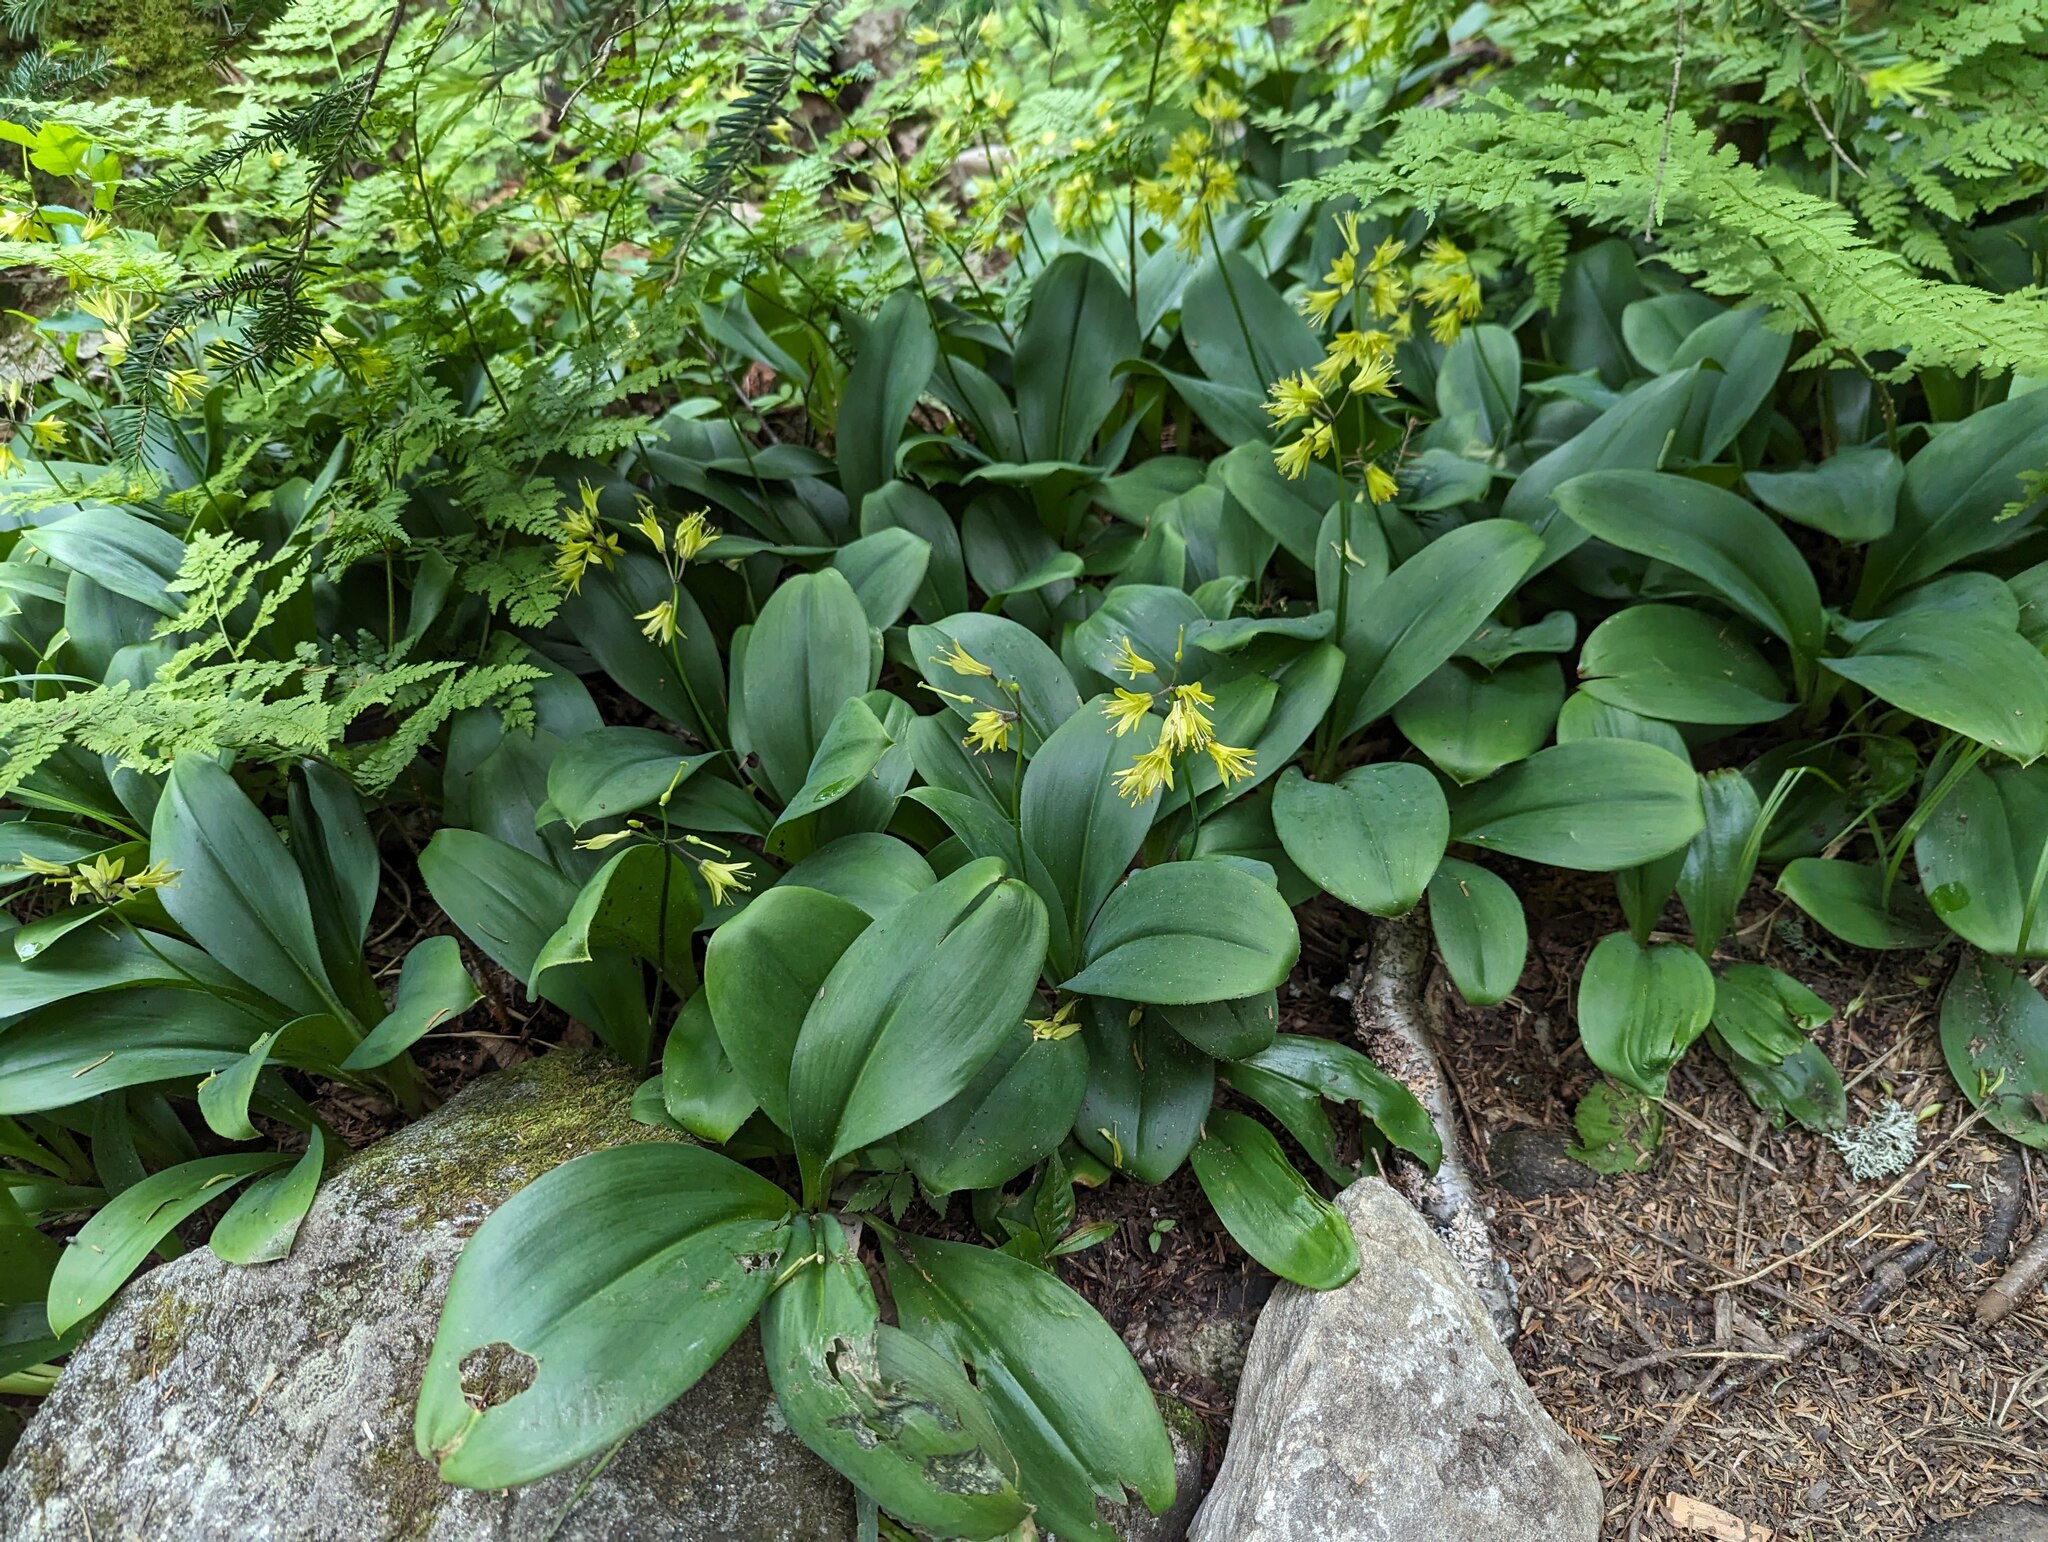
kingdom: Plantae
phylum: Tracheophyta
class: Liliopsida
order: Liliales
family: Liliaceae
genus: Clintonia
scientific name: Clintonia borealis
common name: Yellow clintonia
